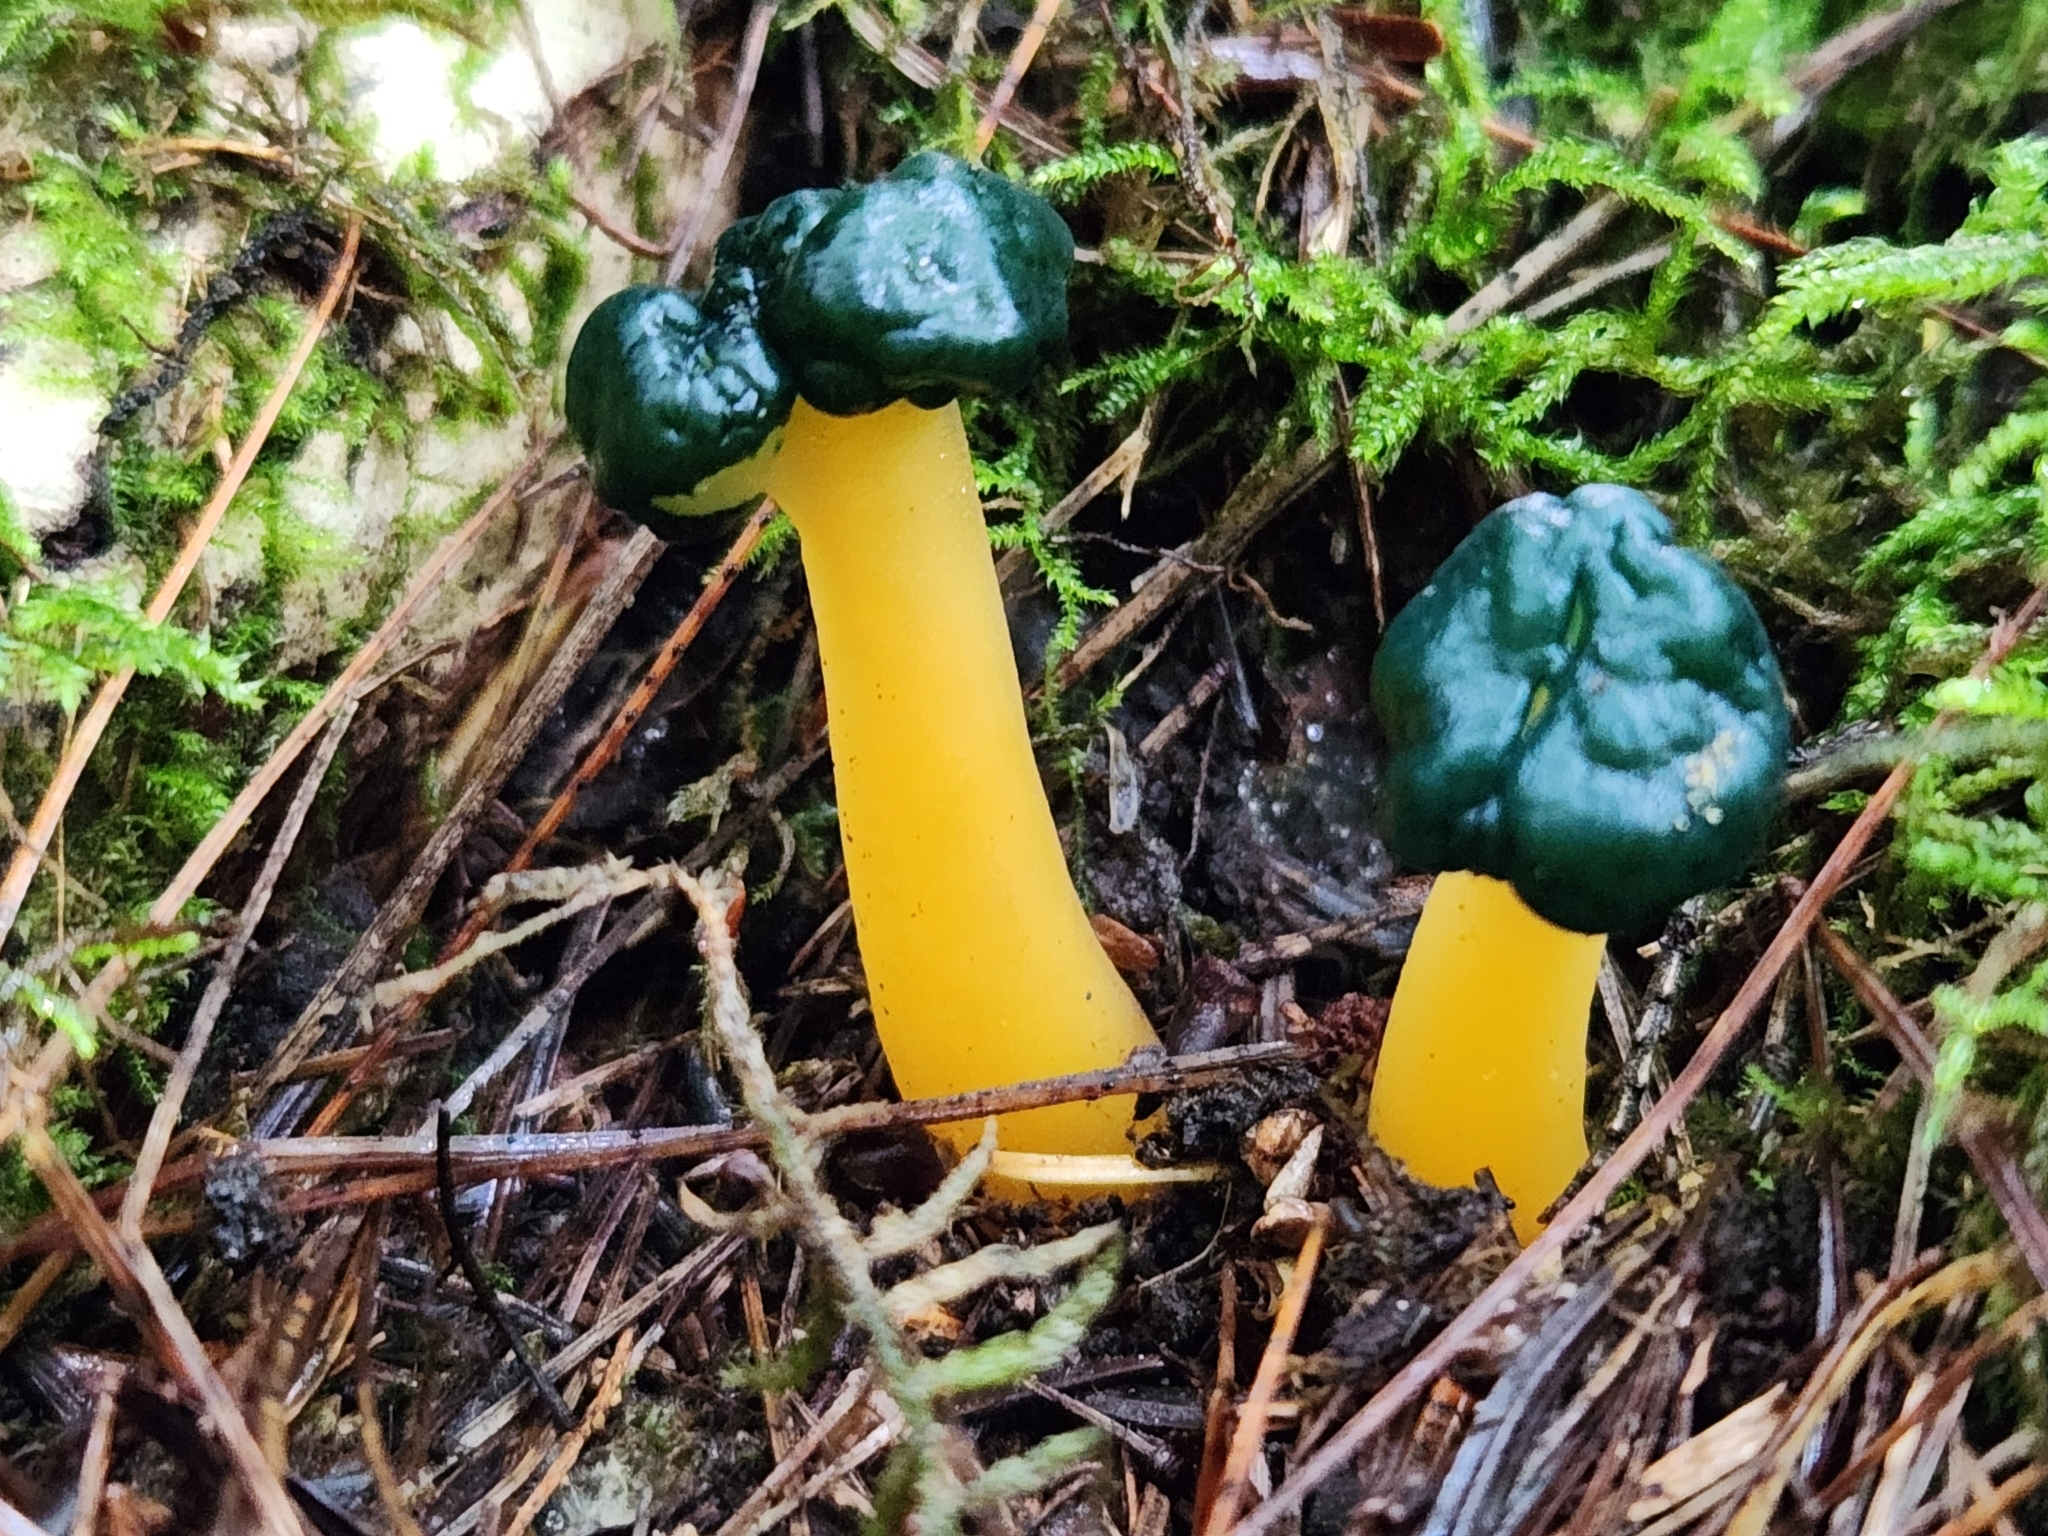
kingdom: Fungi
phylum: Ascomycota
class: Leotiomycetes
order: Leotiales
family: Leotiaceae
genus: Leotia
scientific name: Leotia lubrica
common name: Jellybaby
